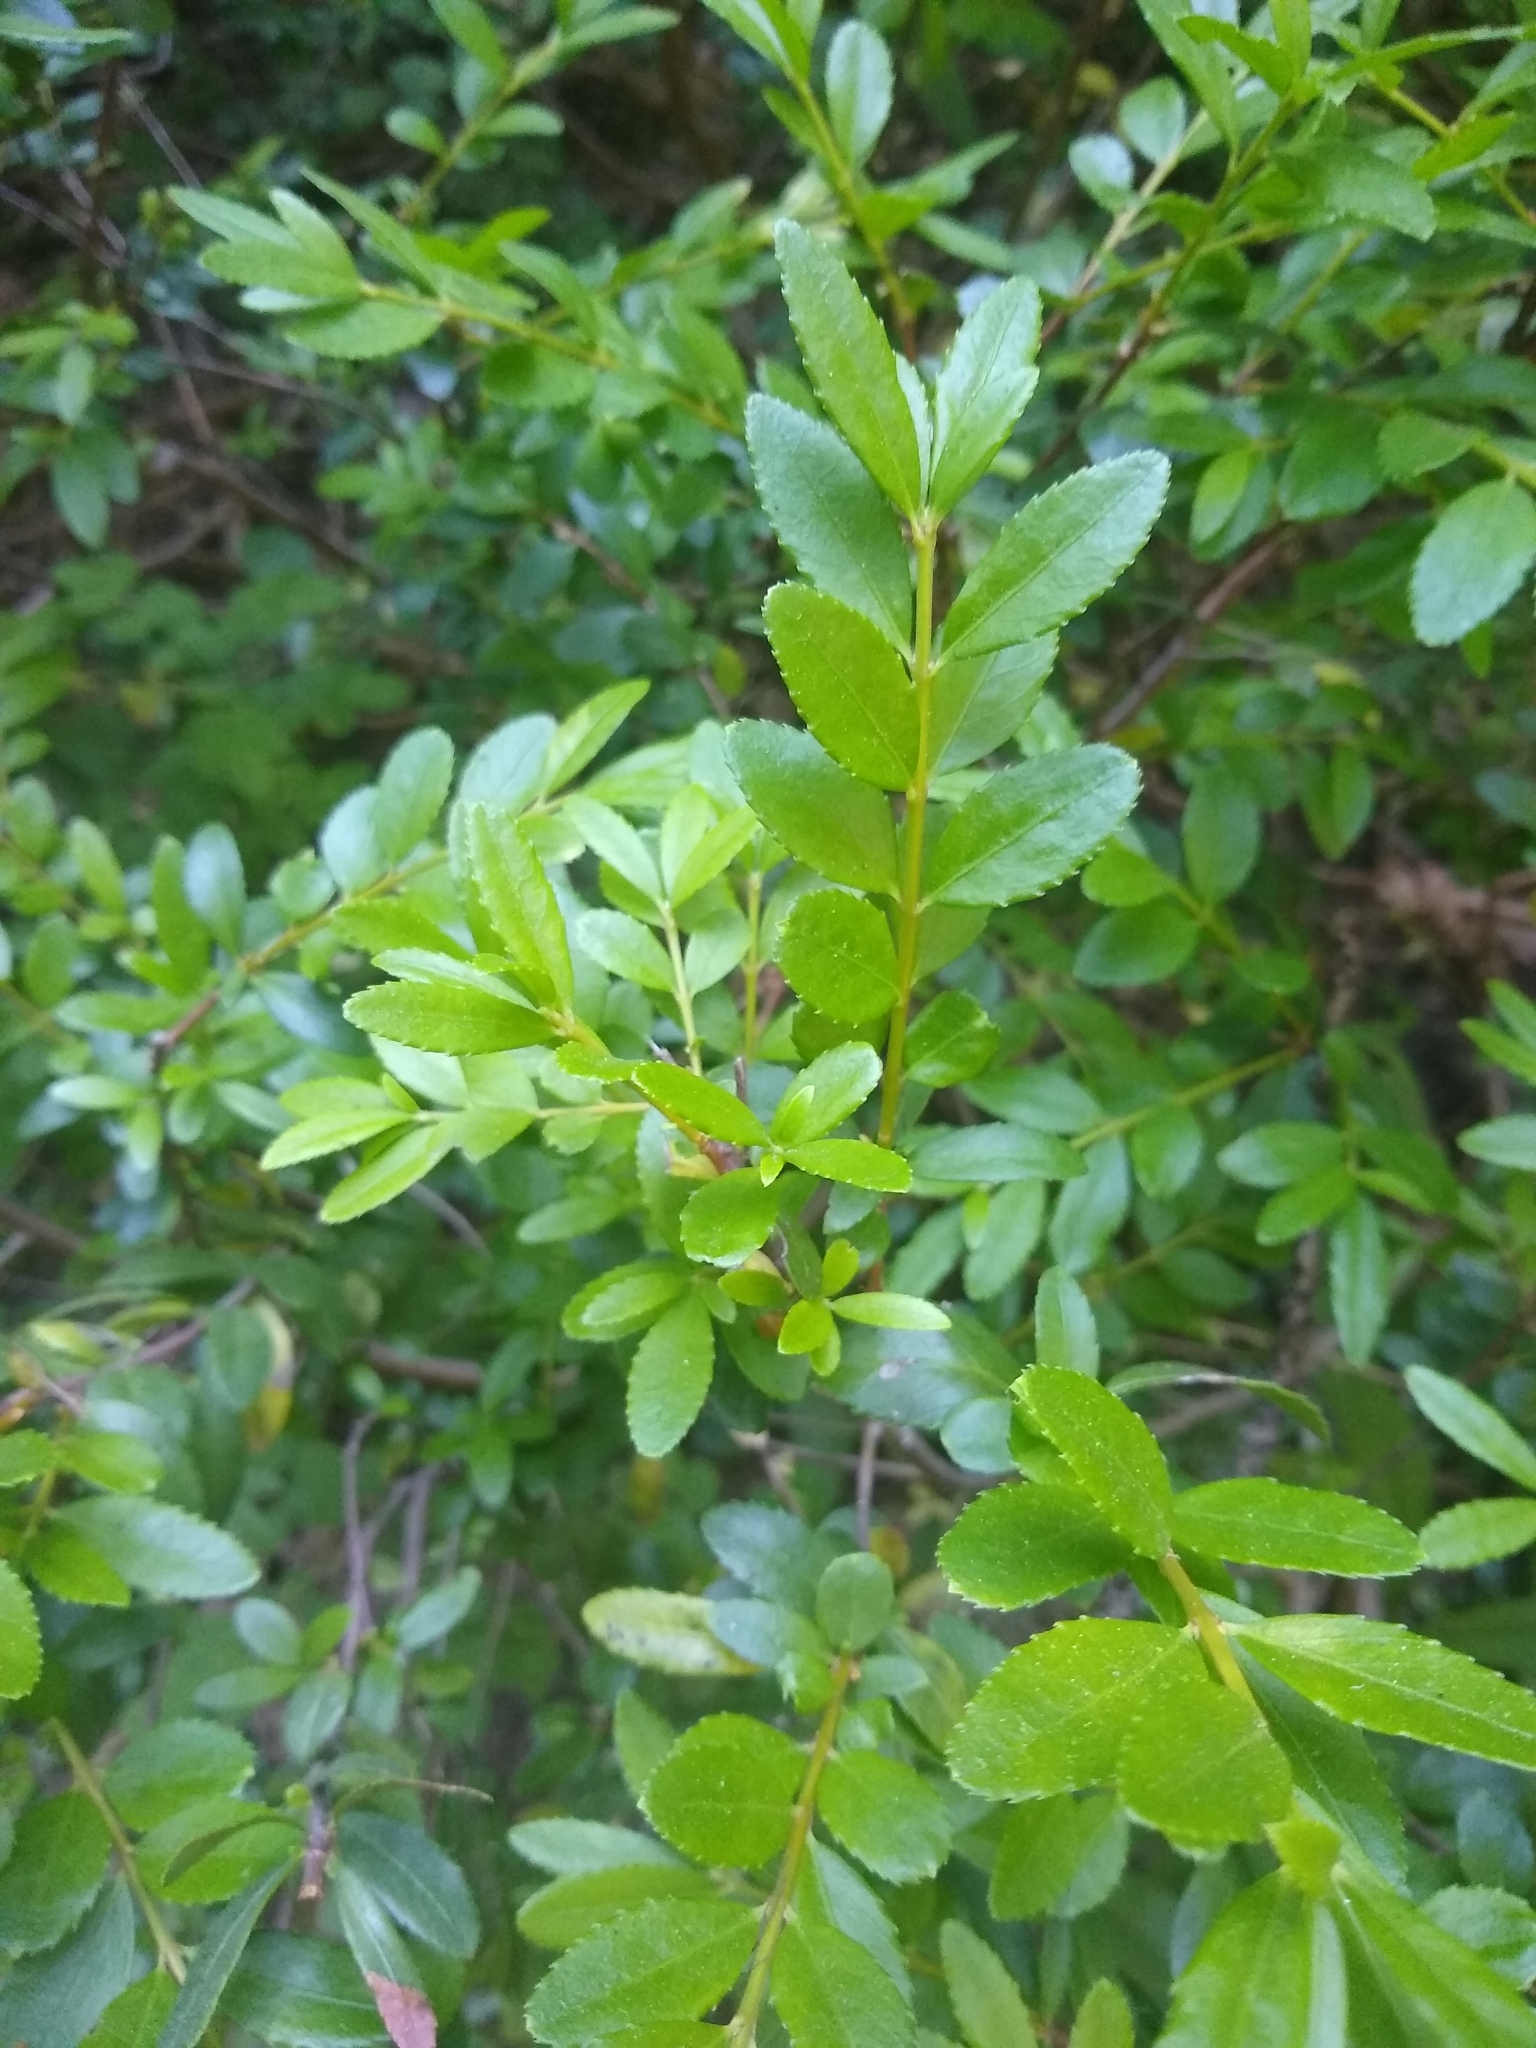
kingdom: Plantae
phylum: Tracheophyta
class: Magnoliopsida
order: Celastrales
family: Celastraceae
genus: Paxistima
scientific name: Paxistima myrsinites
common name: Mountain-lover
